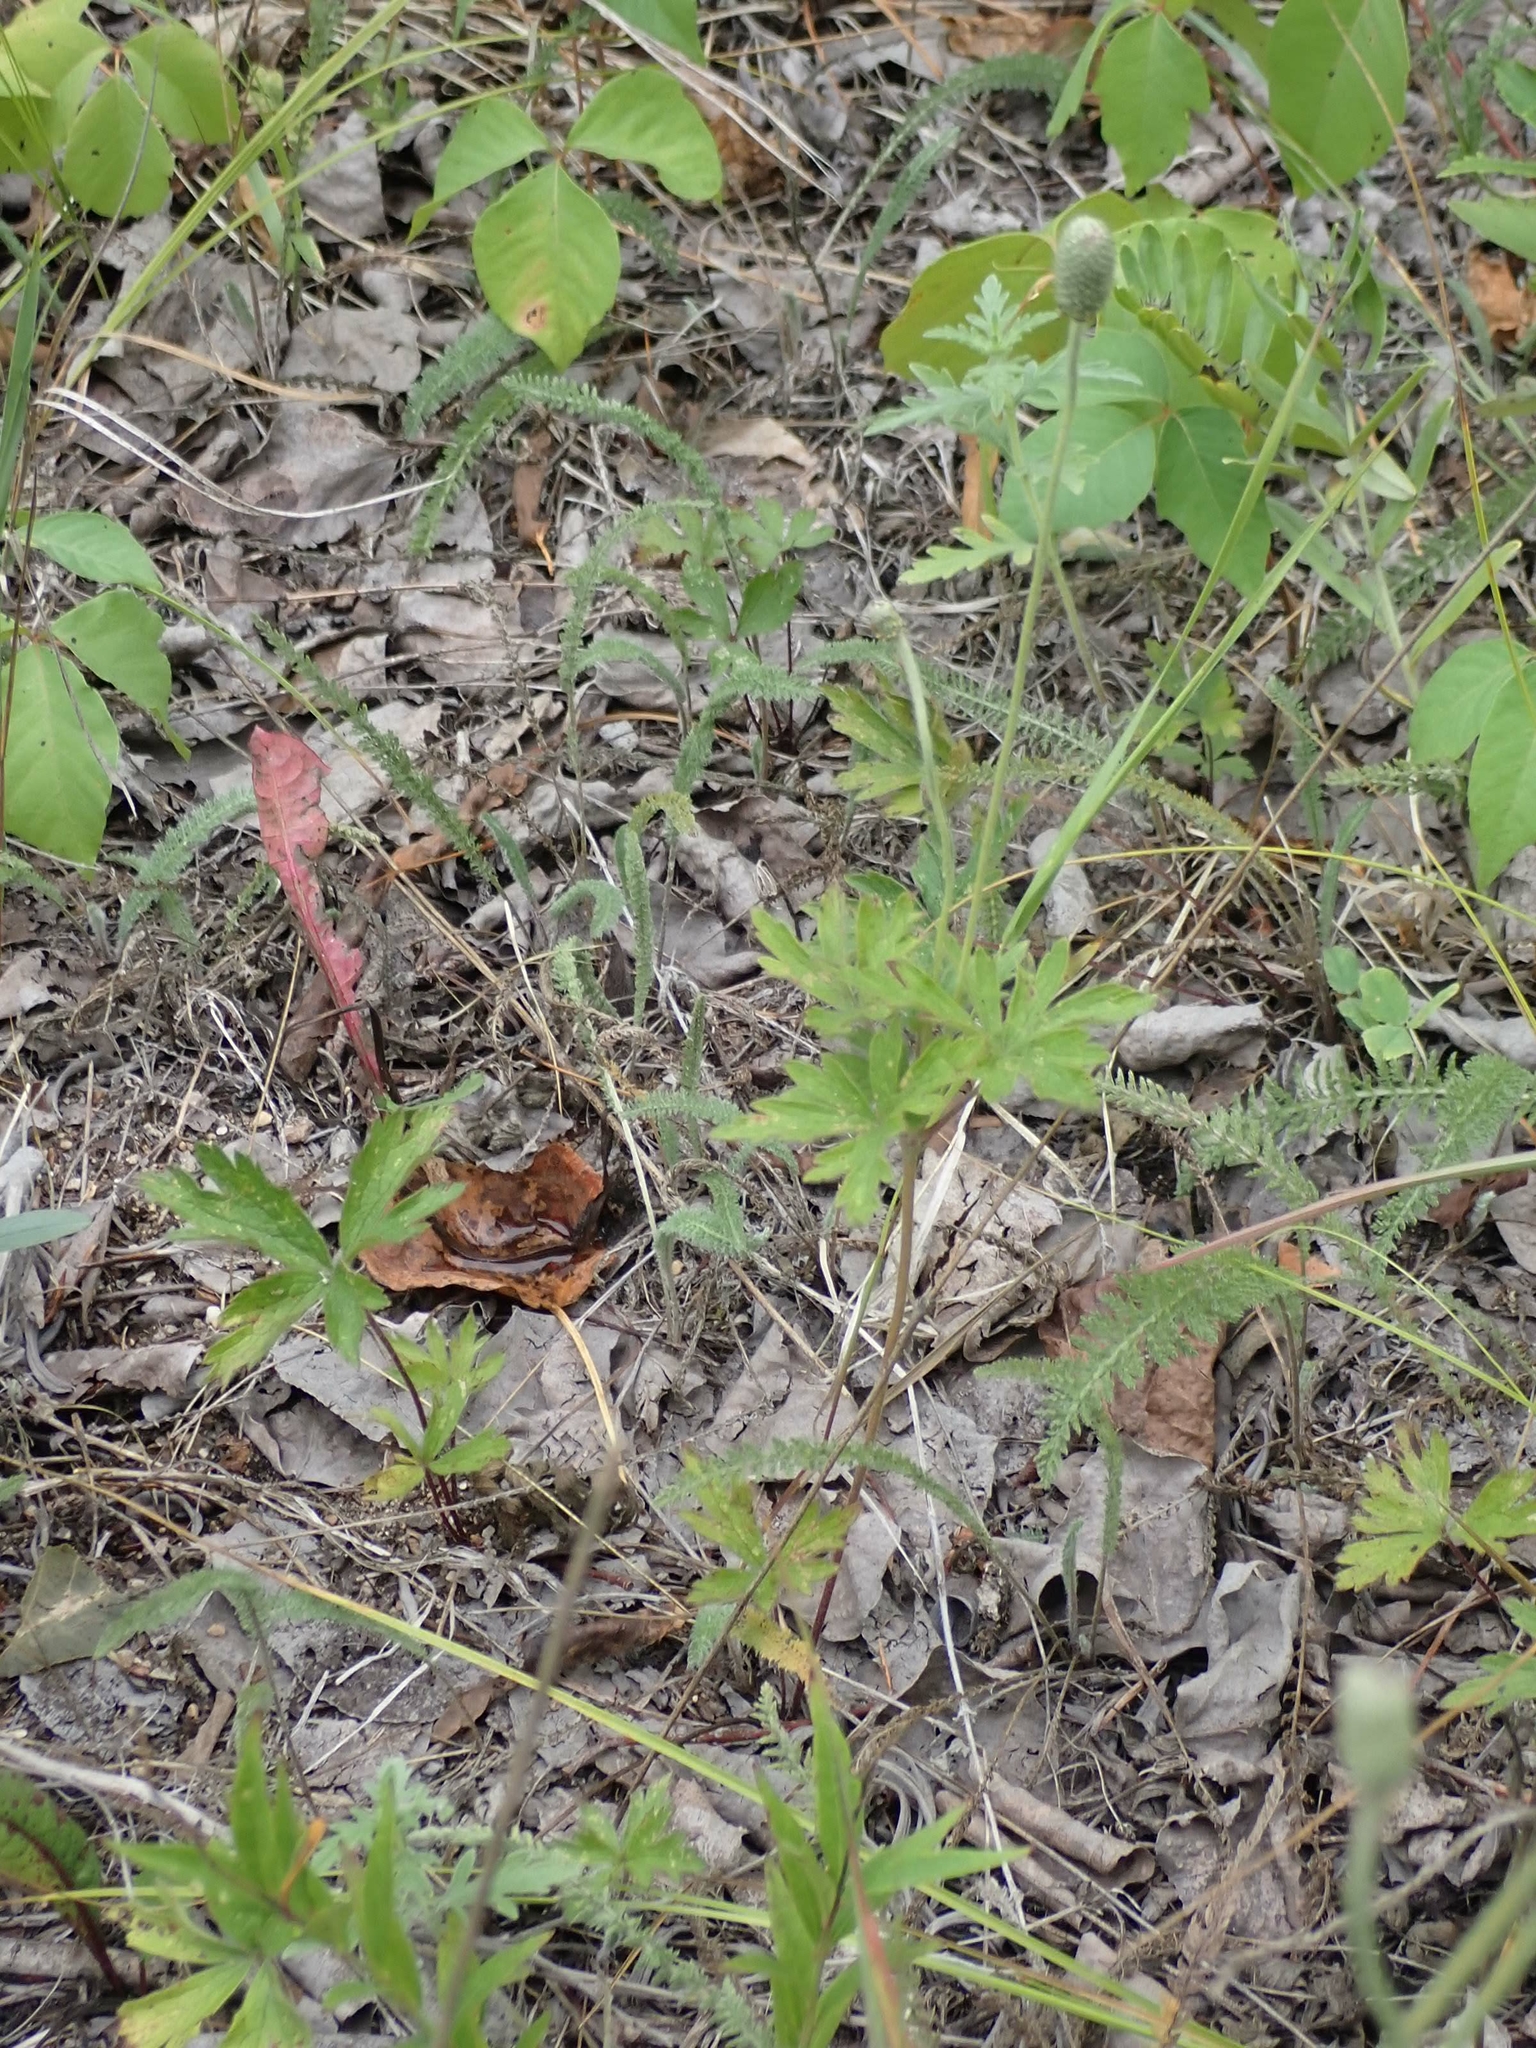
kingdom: Plantae
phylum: Tracheophyta
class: Magnoliopsida
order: Ranunculales
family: Ranunculaceae
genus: Anemone
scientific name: Anemone cylindrica
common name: Candle anemone
